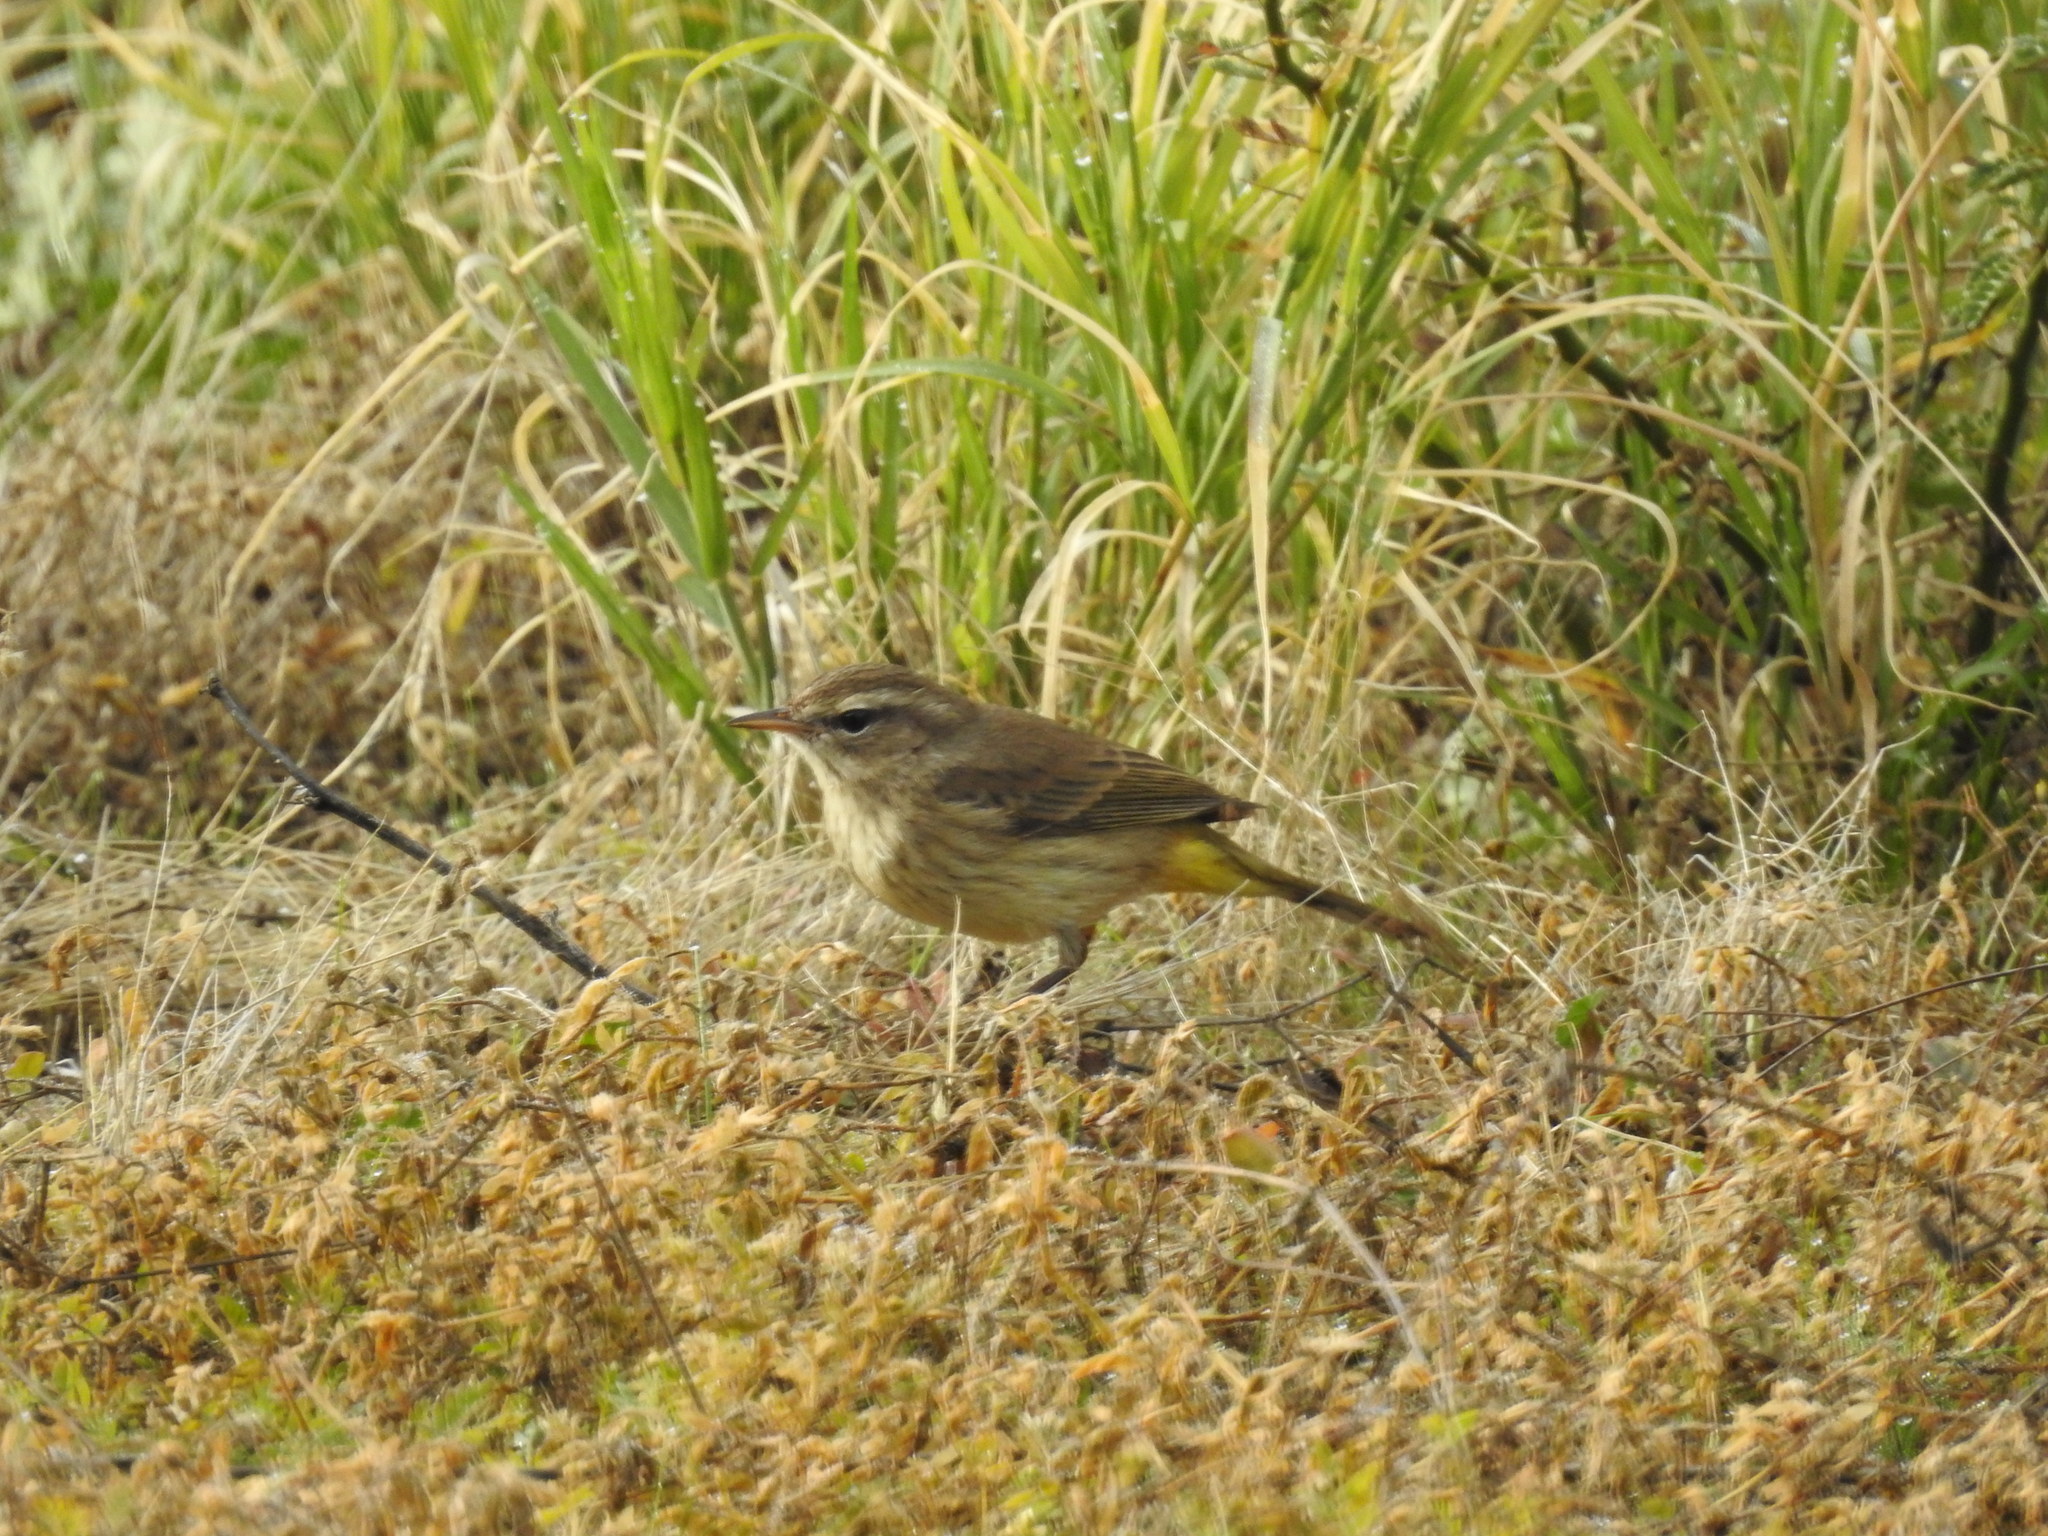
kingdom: Animalia
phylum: Chordata
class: Aves
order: Passeriformes
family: Parulidae
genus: Setophaga
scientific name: Setophaga palmarum
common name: Palm warbler
